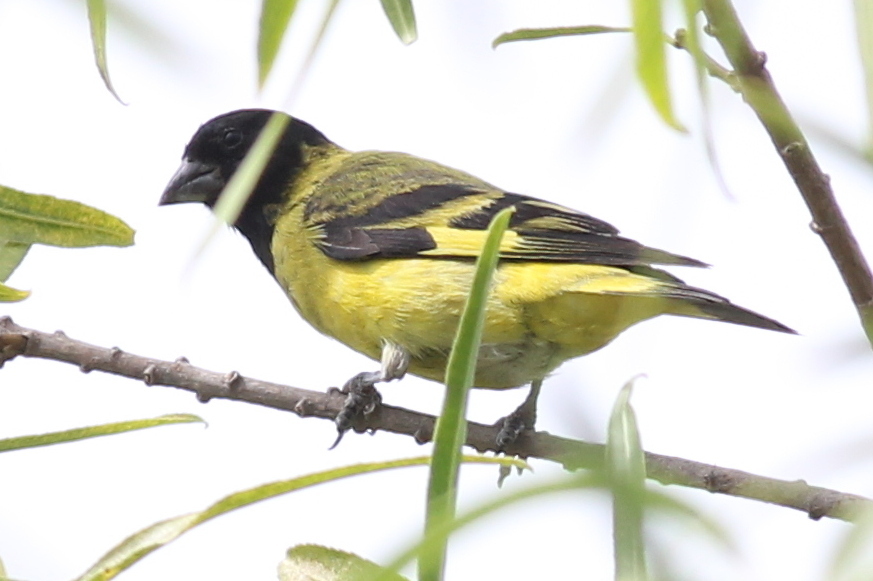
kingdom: Animalia
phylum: Chordata
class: Aves
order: Passeriformes
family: Fringillidae
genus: Spinus
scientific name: Spinus magellanicus
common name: Hooded siskin
